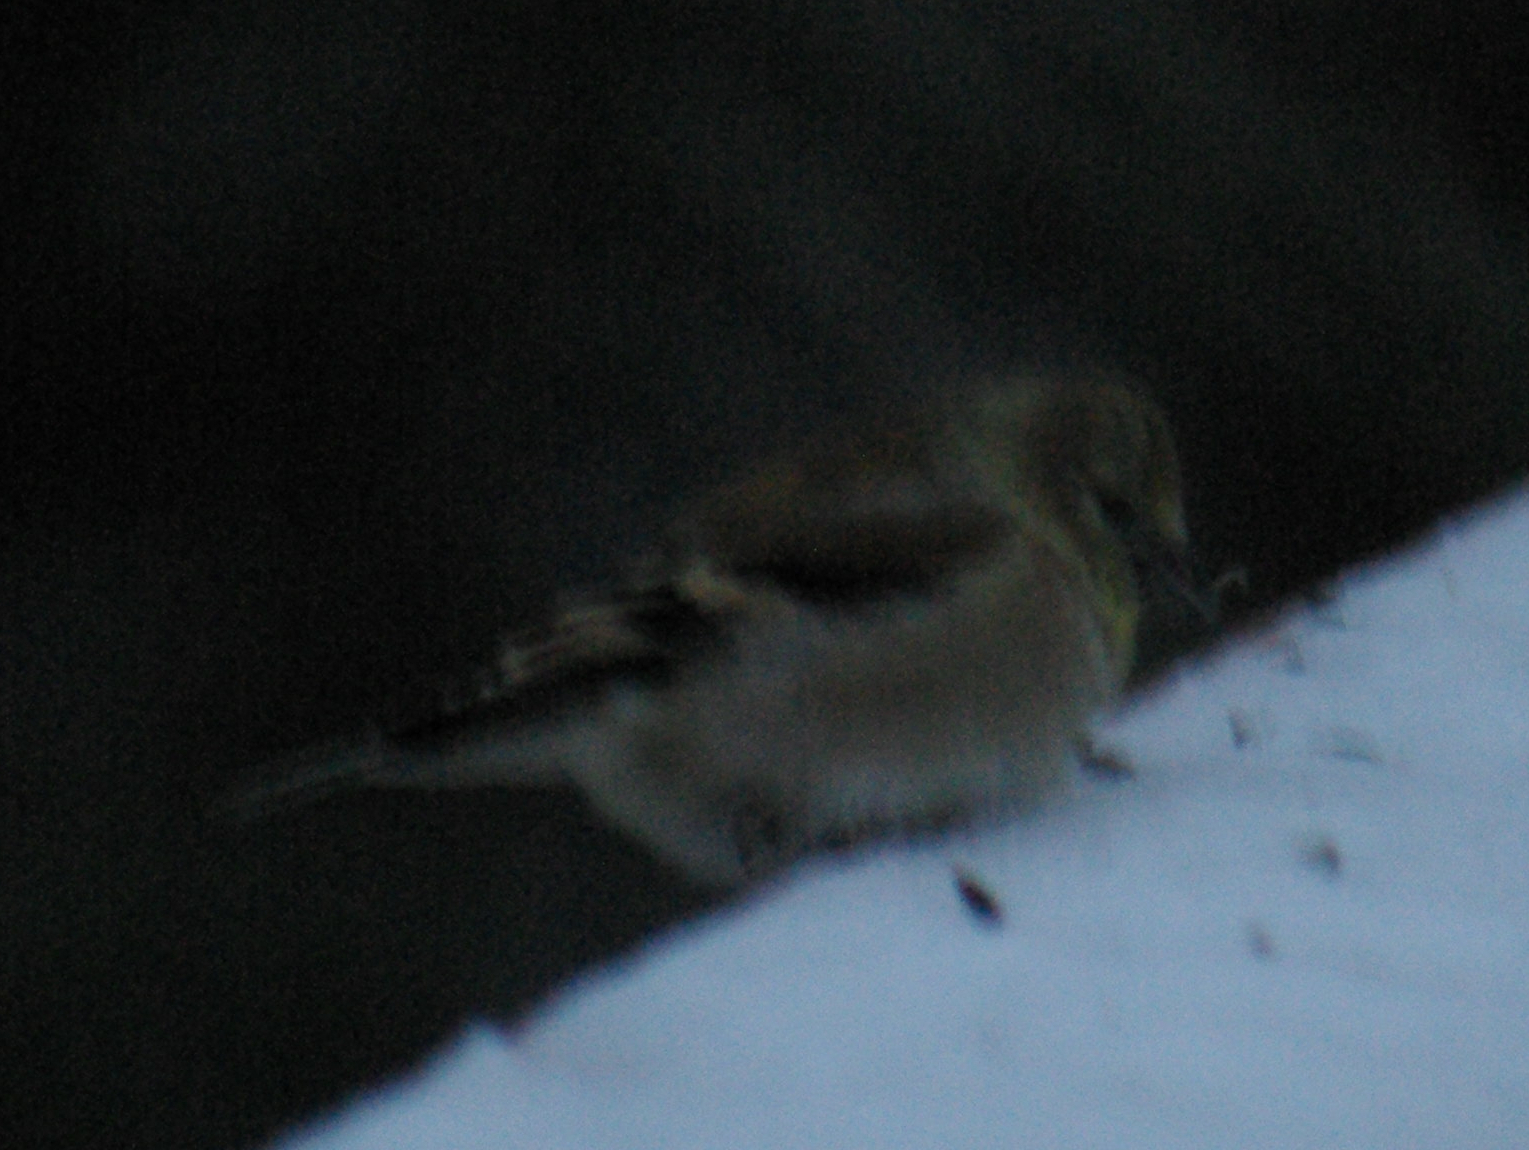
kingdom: Animalia
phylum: Chordata
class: Aves
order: Passeriformes
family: Fringillidae
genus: Spinus
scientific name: Spinus tristis
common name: American goldfinch
